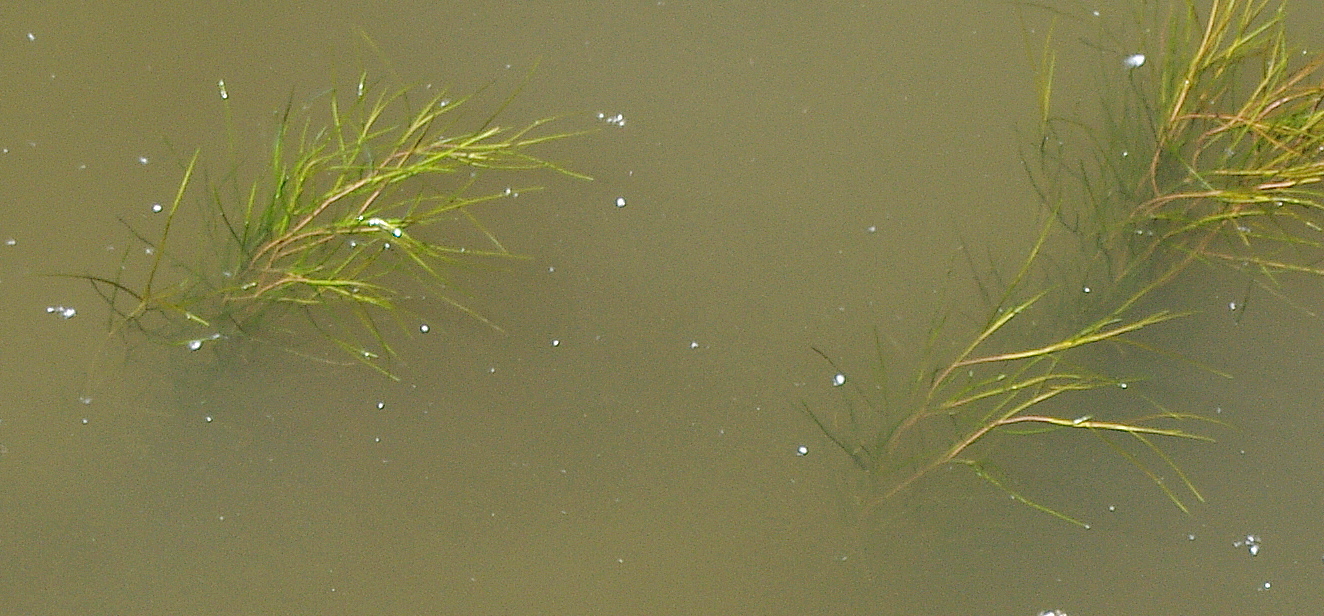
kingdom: Plantae
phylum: Tracheophyta
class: Liliopsida
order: Alismatales
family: Potamogetonaceae
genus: Stuckenia
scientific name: Stuckenia pectinata
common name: Sago pondweed
